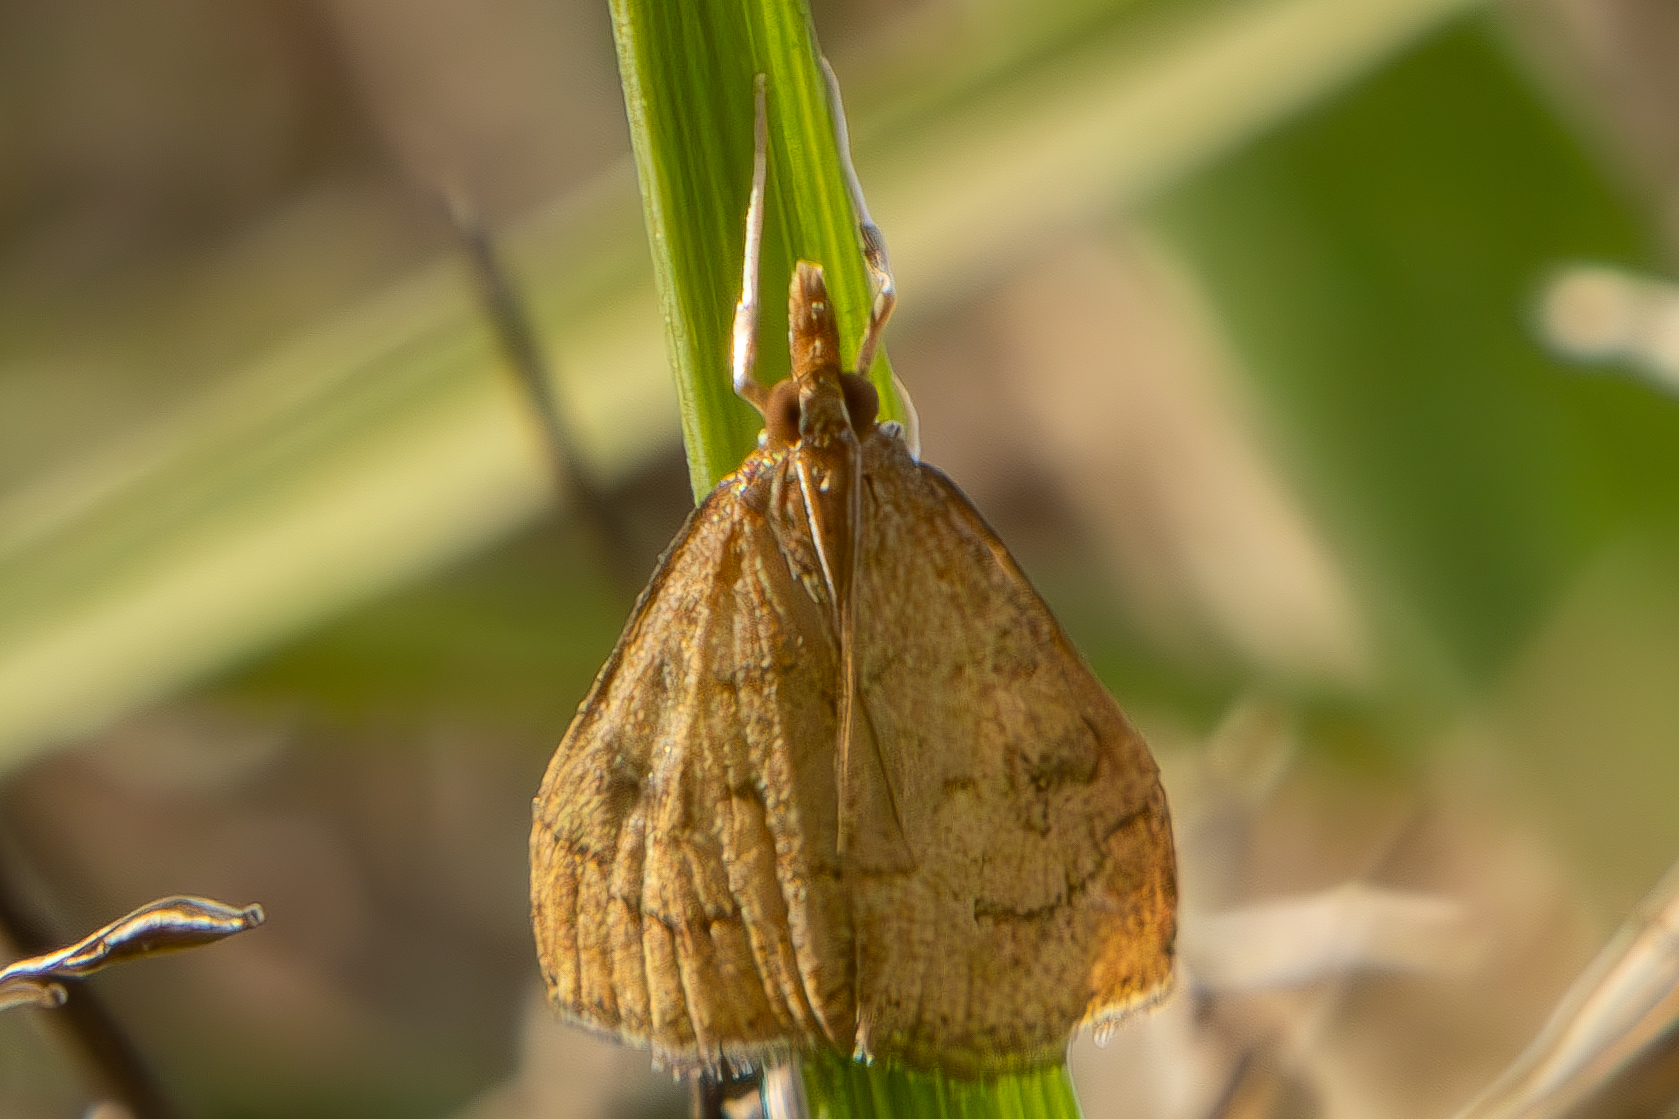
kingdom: Animalia
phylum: Arthropoda
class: Insecta
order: Lepidoptera
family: Crambidae
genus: Udea
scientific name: Udea rubigalis
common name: Celery leaftier moth
